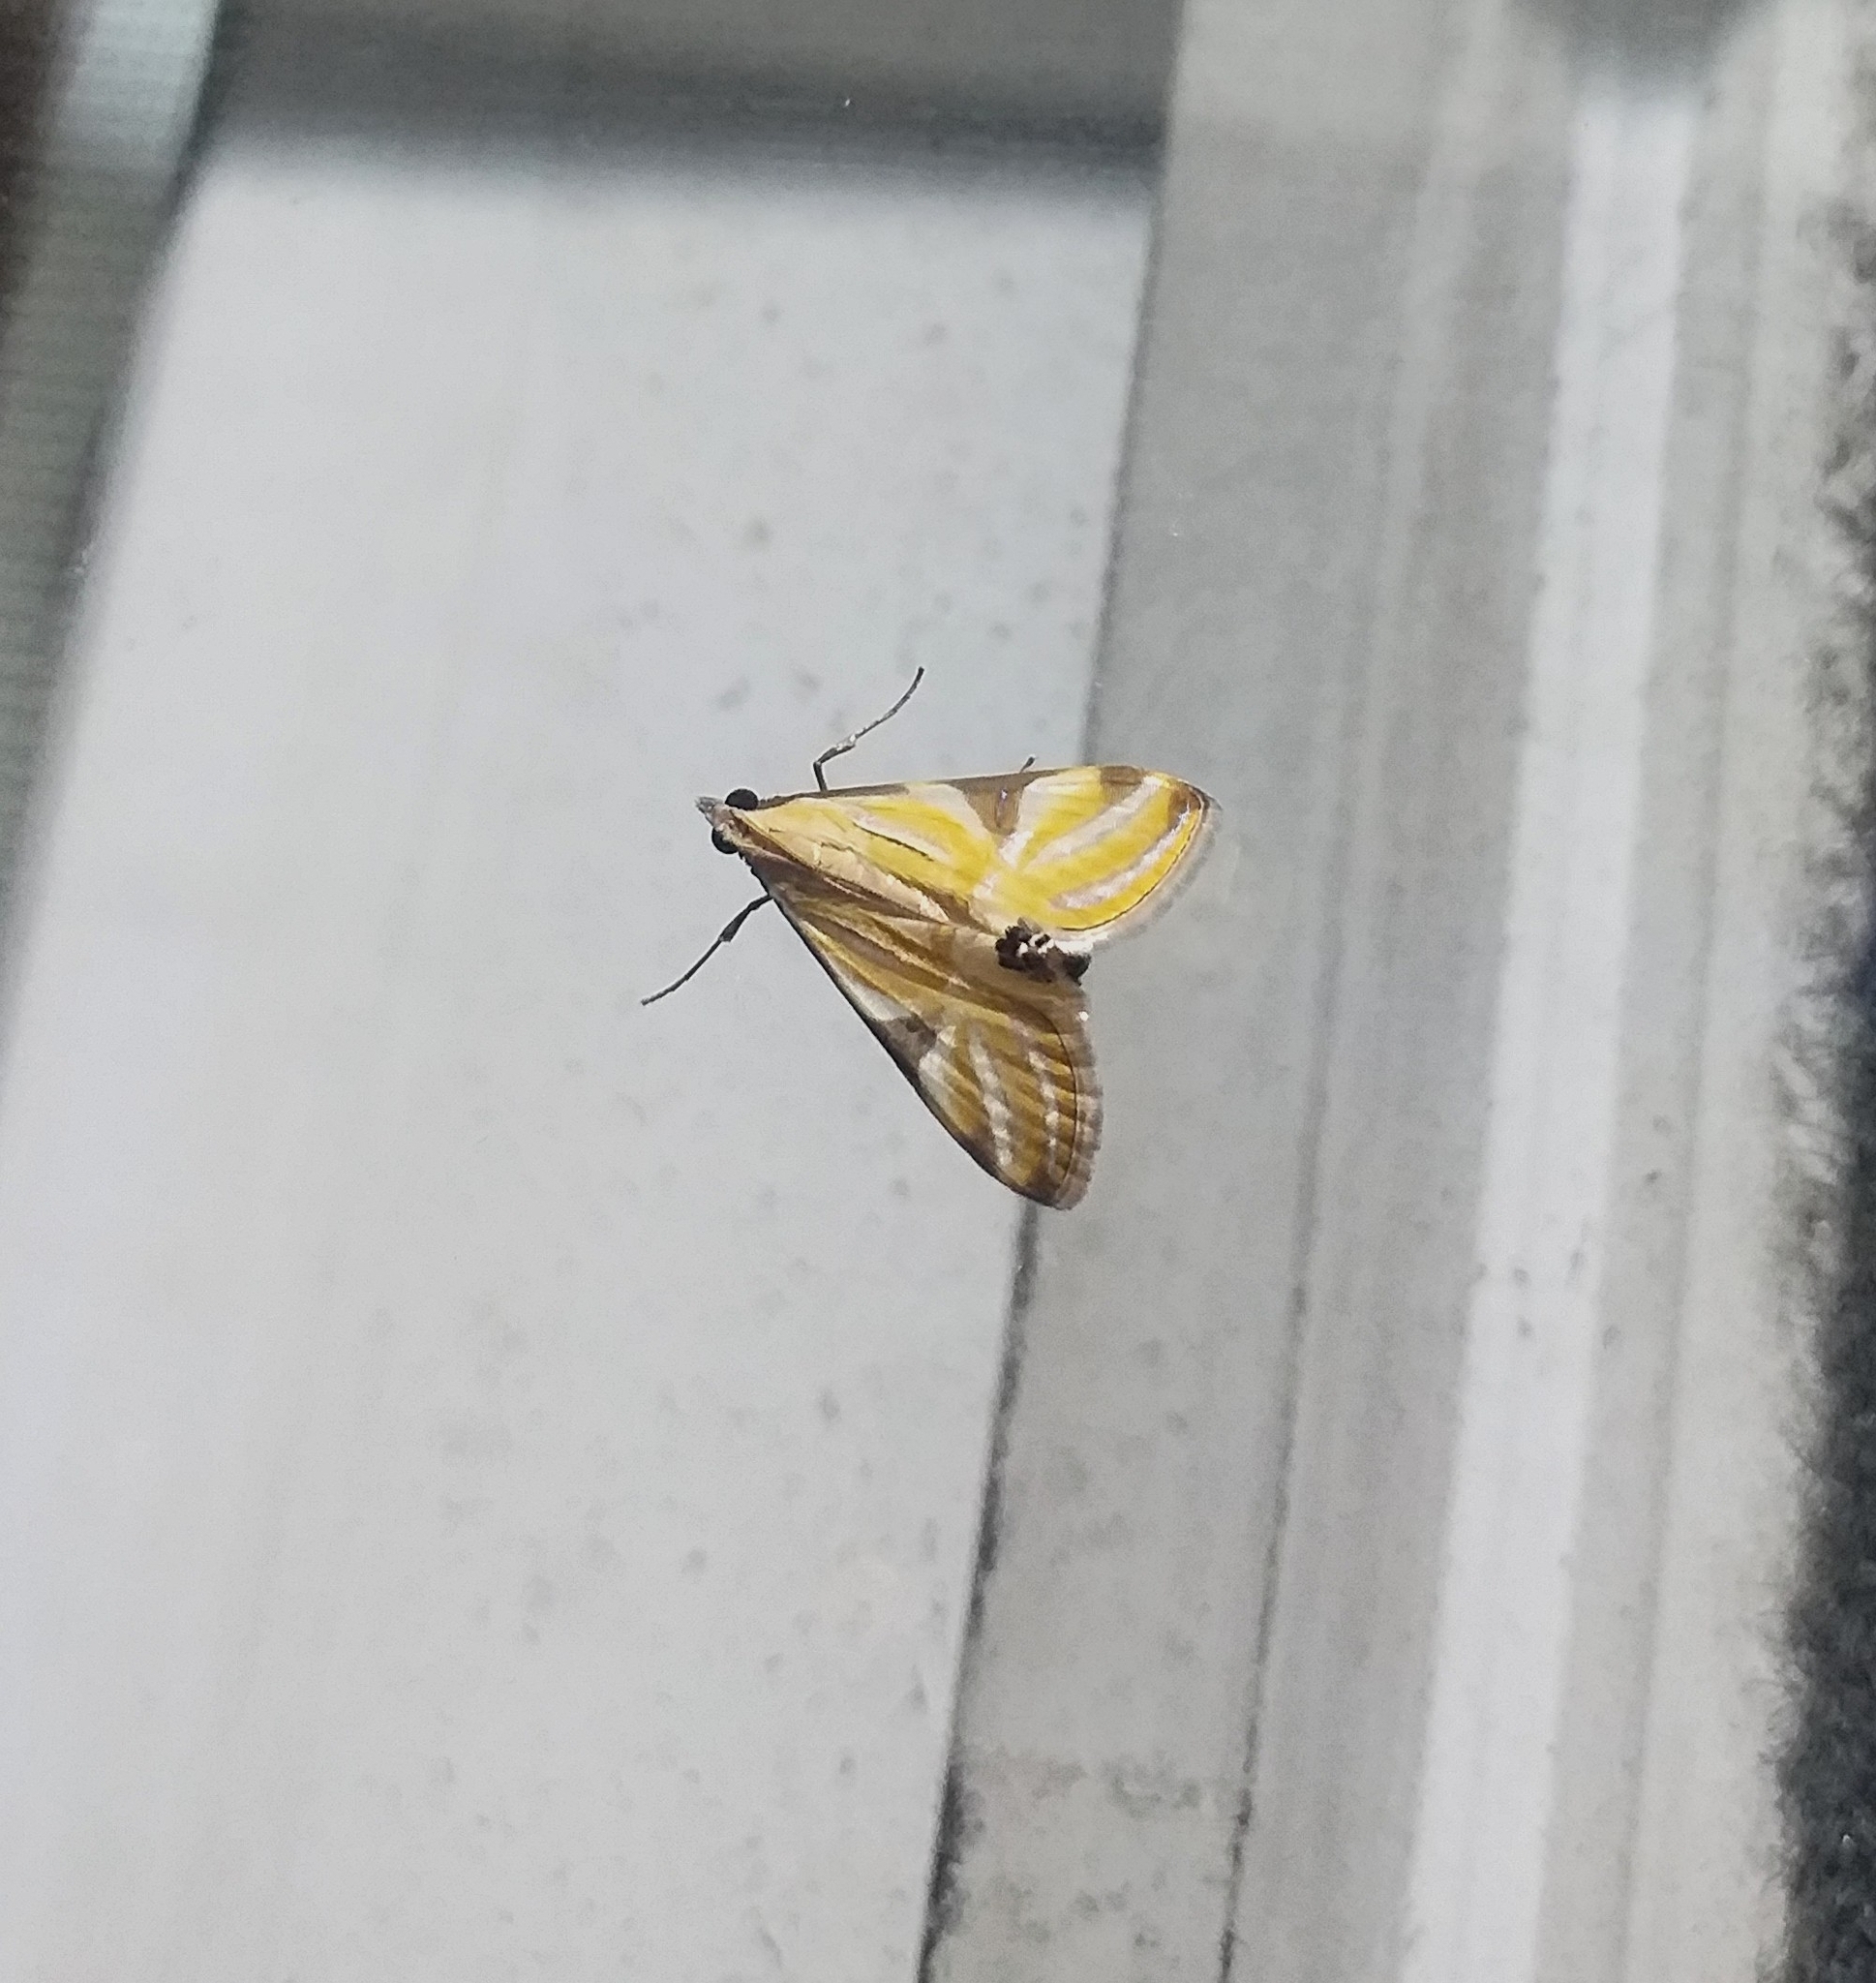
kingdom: Animalia
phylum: Arthropoda
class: Insecta
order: Lepidoptera
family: Crambidae
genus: Talanga
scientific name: Talanga sexpunctalis
